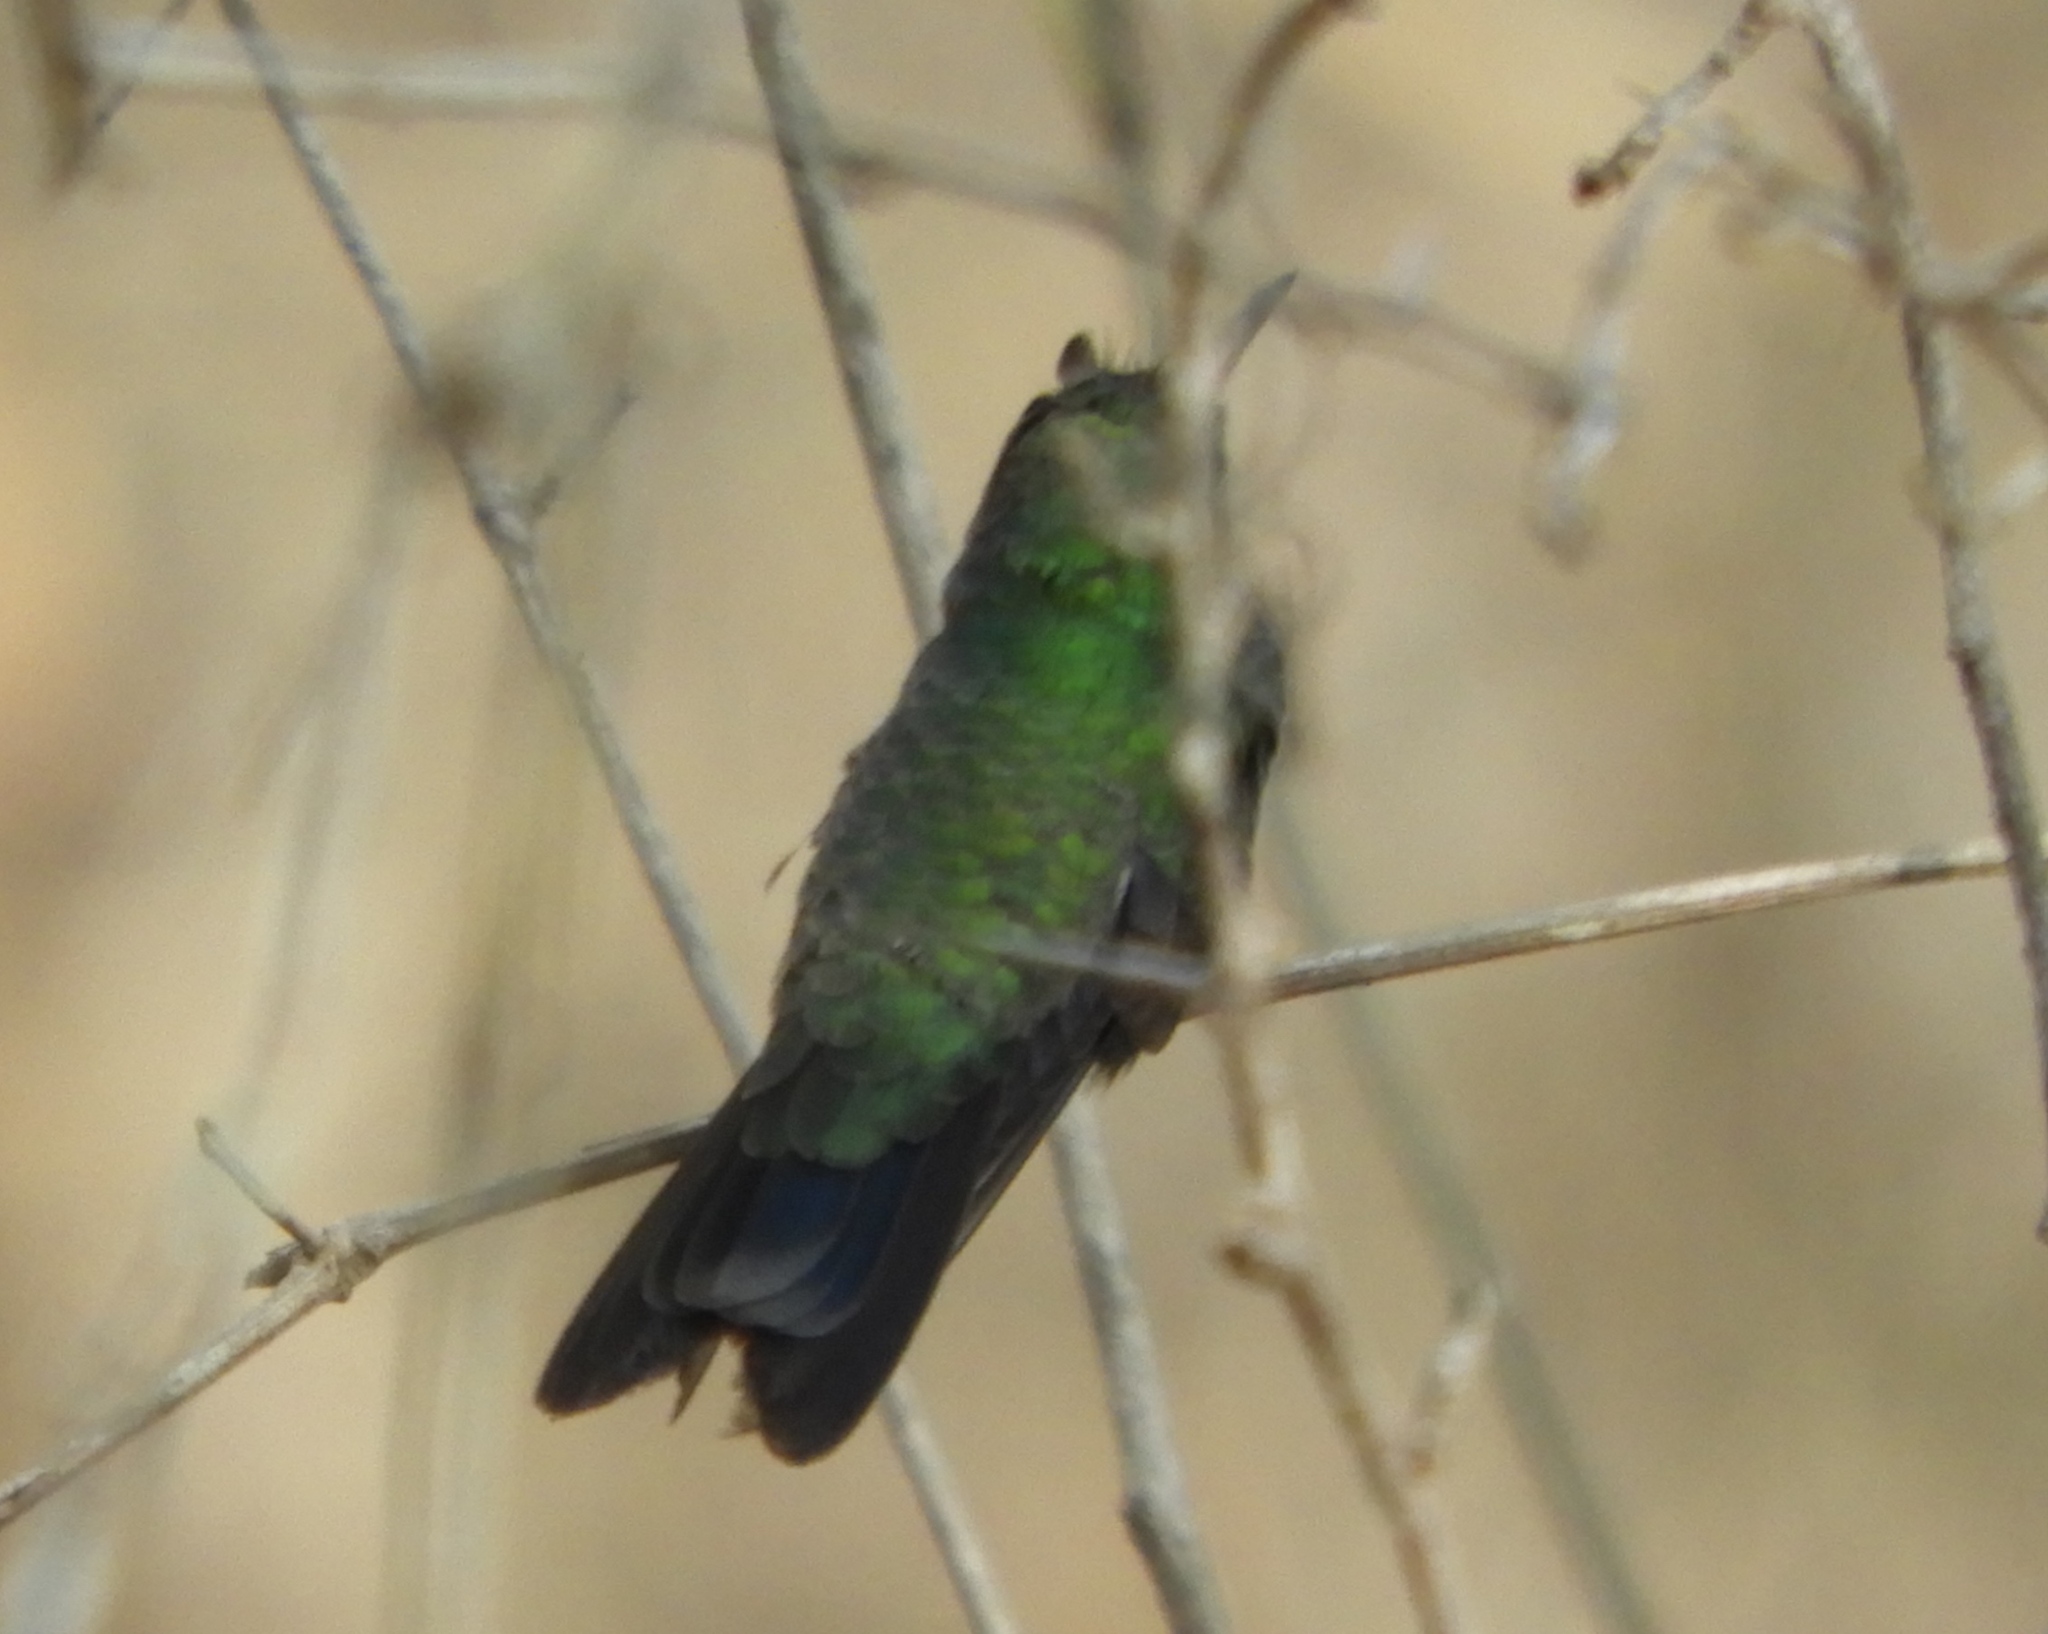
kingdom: Animalia
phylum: Chordata
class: Aves
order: Apodiformes
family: Trochilidae
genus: Cynanthus
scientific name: Cynanthus latirostris
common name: Broad-billed hummingbird
